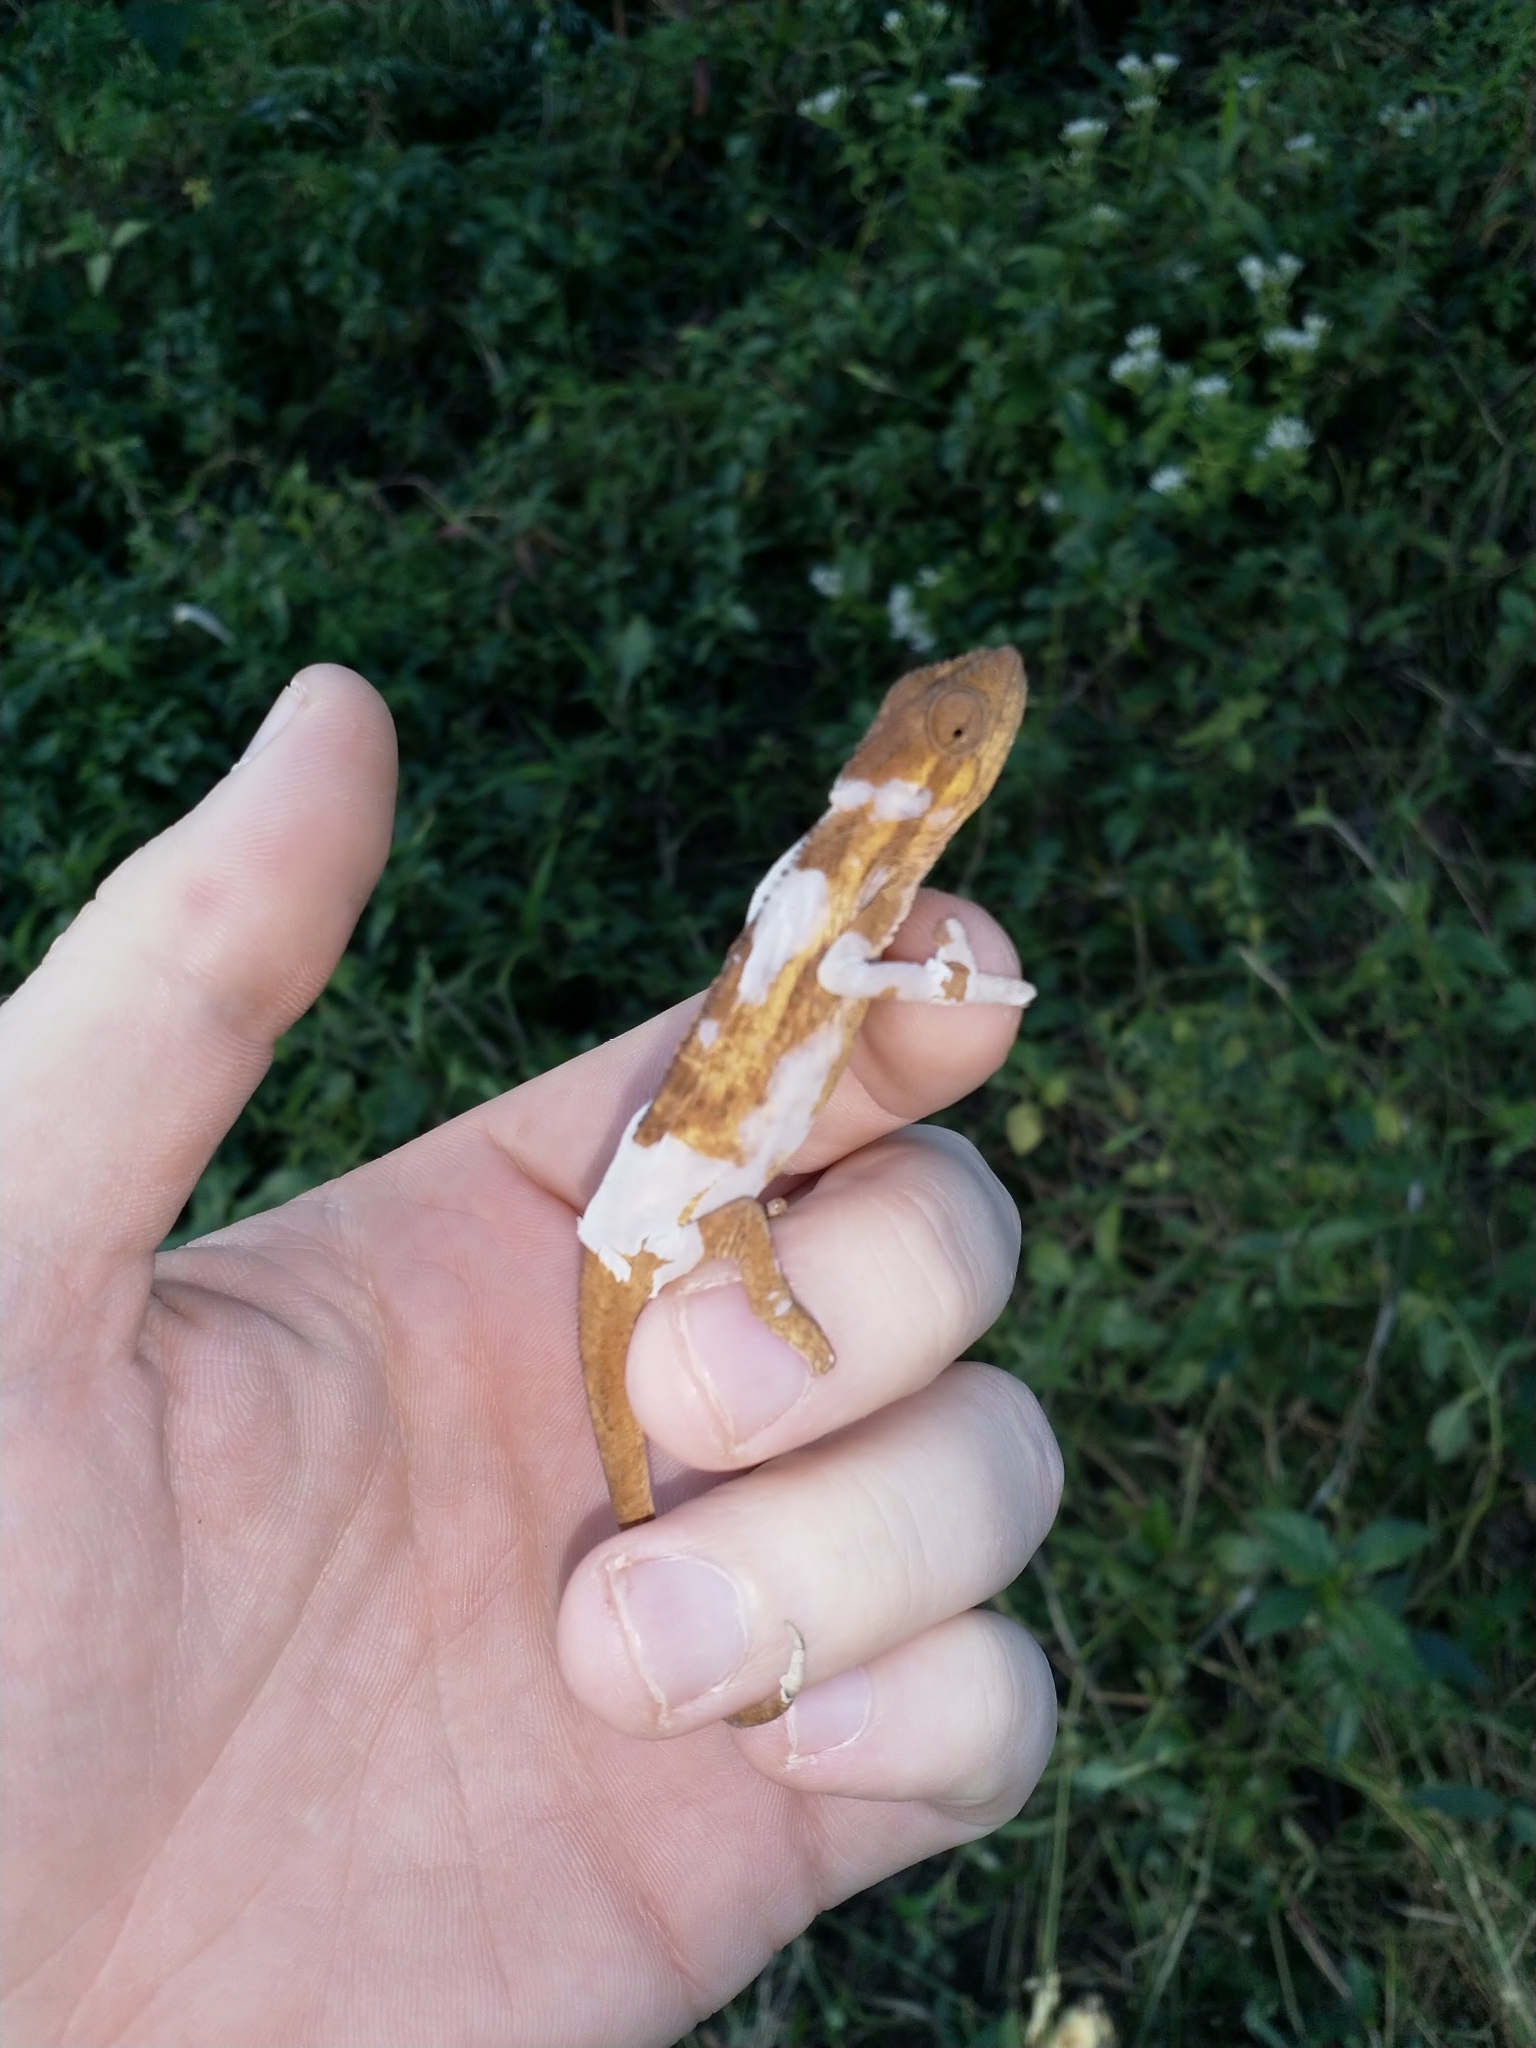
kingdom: Animalia
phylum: Chordata
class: Squamata
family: Chamaeleonidae
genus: Bradypodion
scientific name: Bradypodion melanocephalum
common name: Black-headed dwarf chameleon
